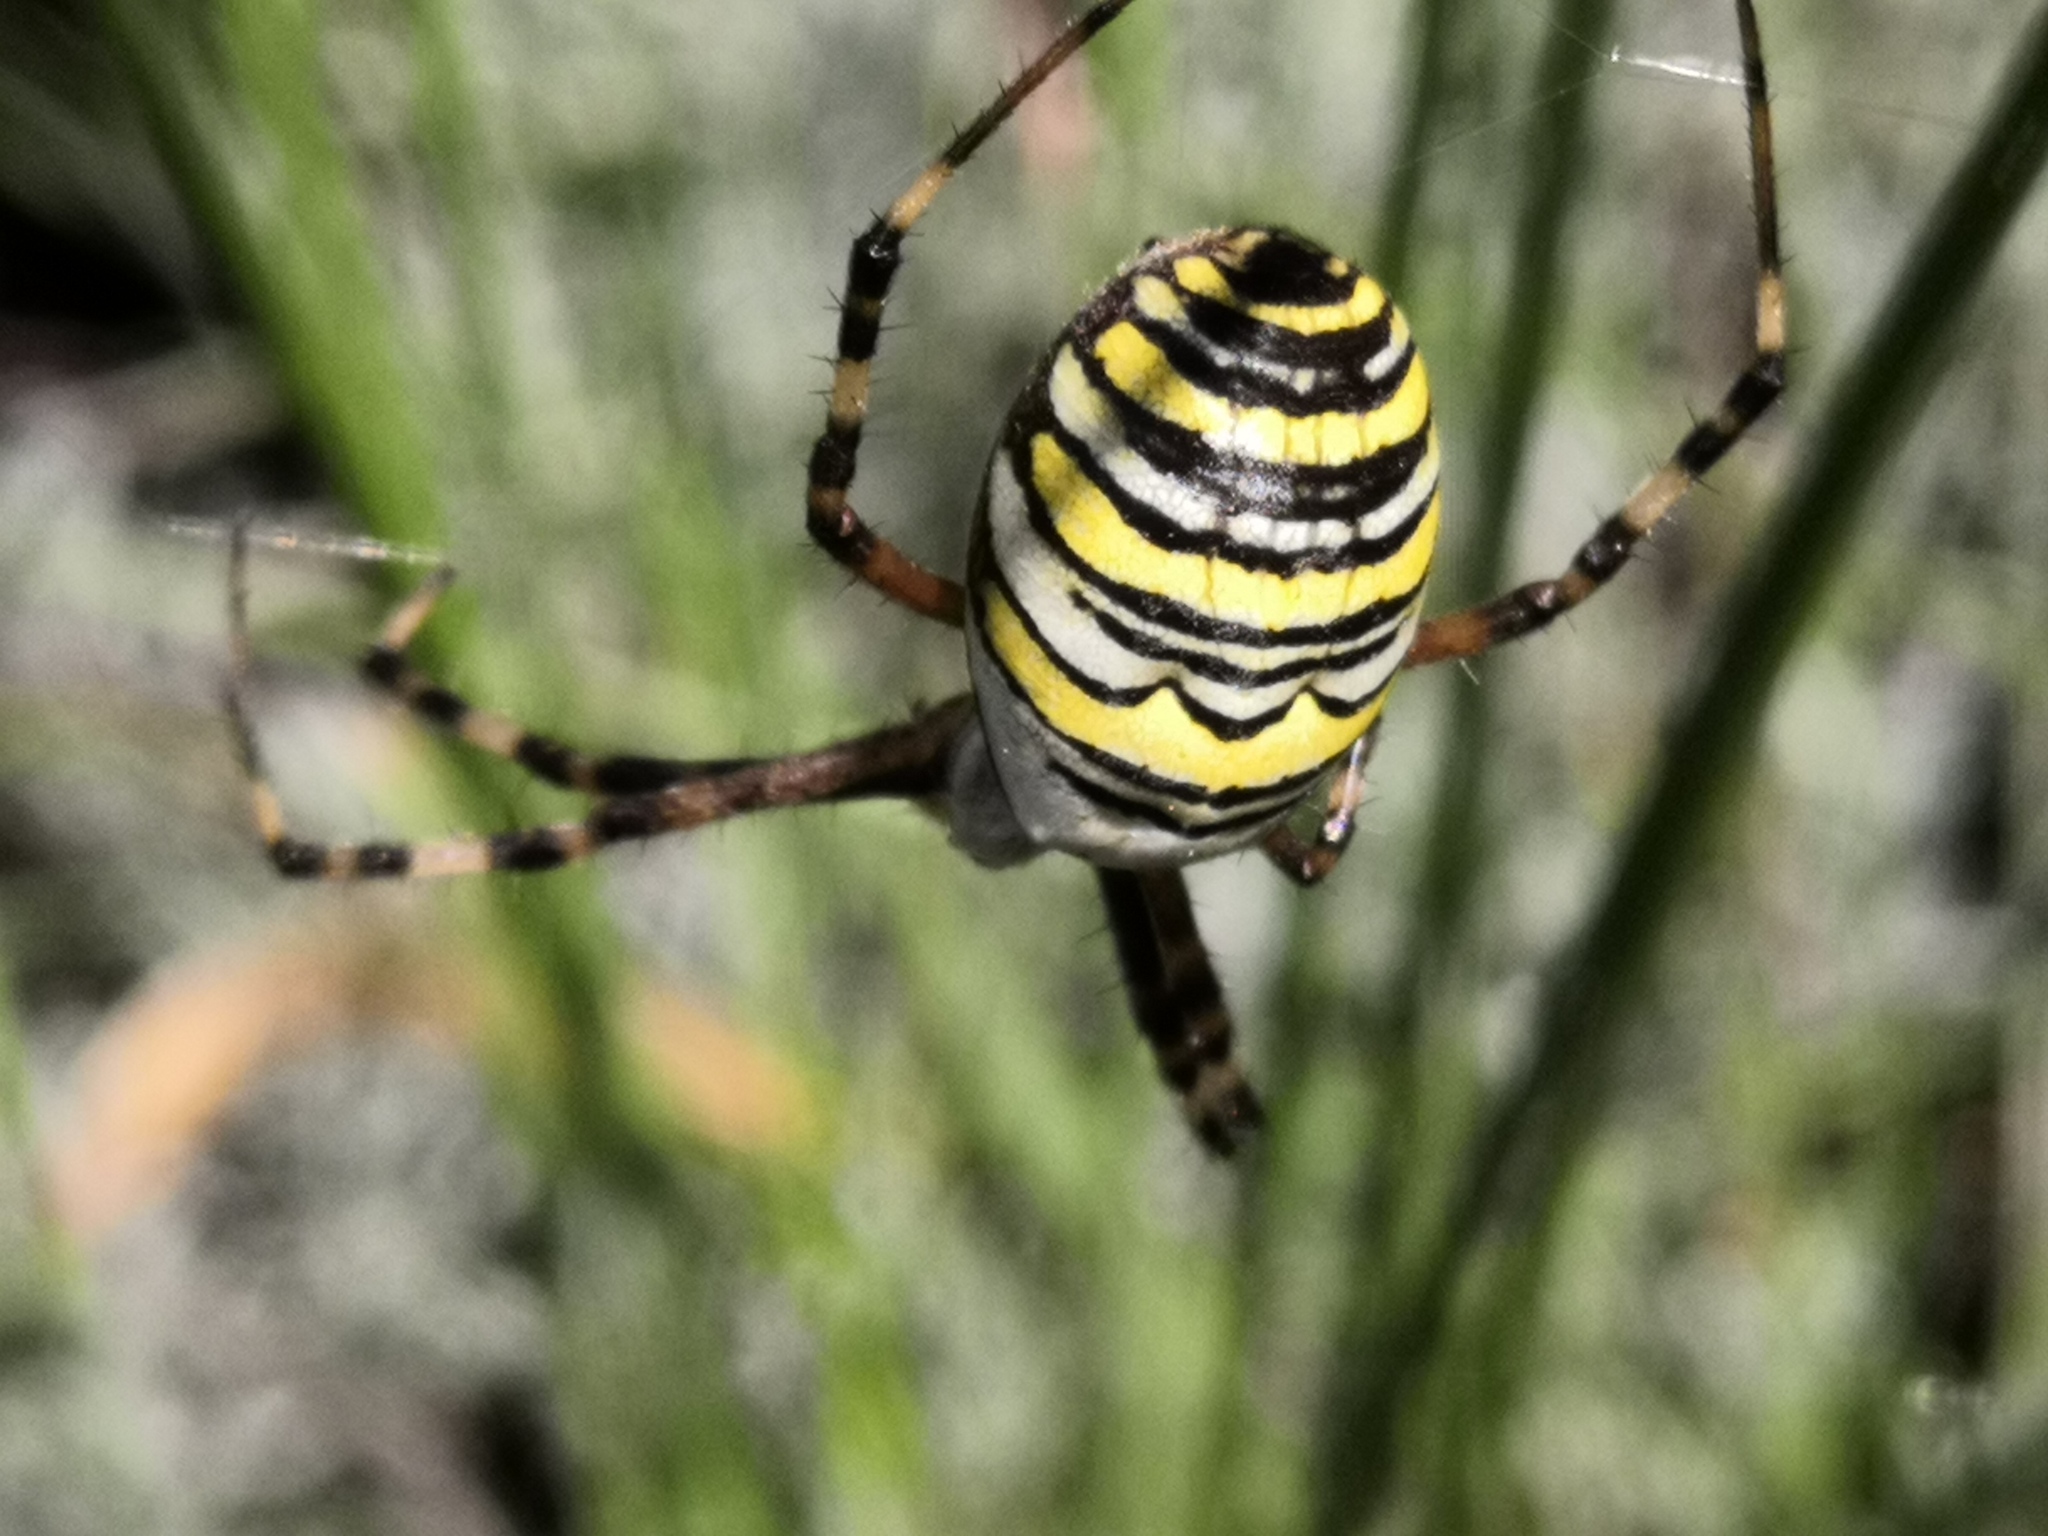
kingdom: Animalia
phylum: Arthropoda
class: Arachnida
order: Araneae
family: Araneidae
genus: Argiope
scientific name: Argiope bruennichi
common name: Wasp spider
